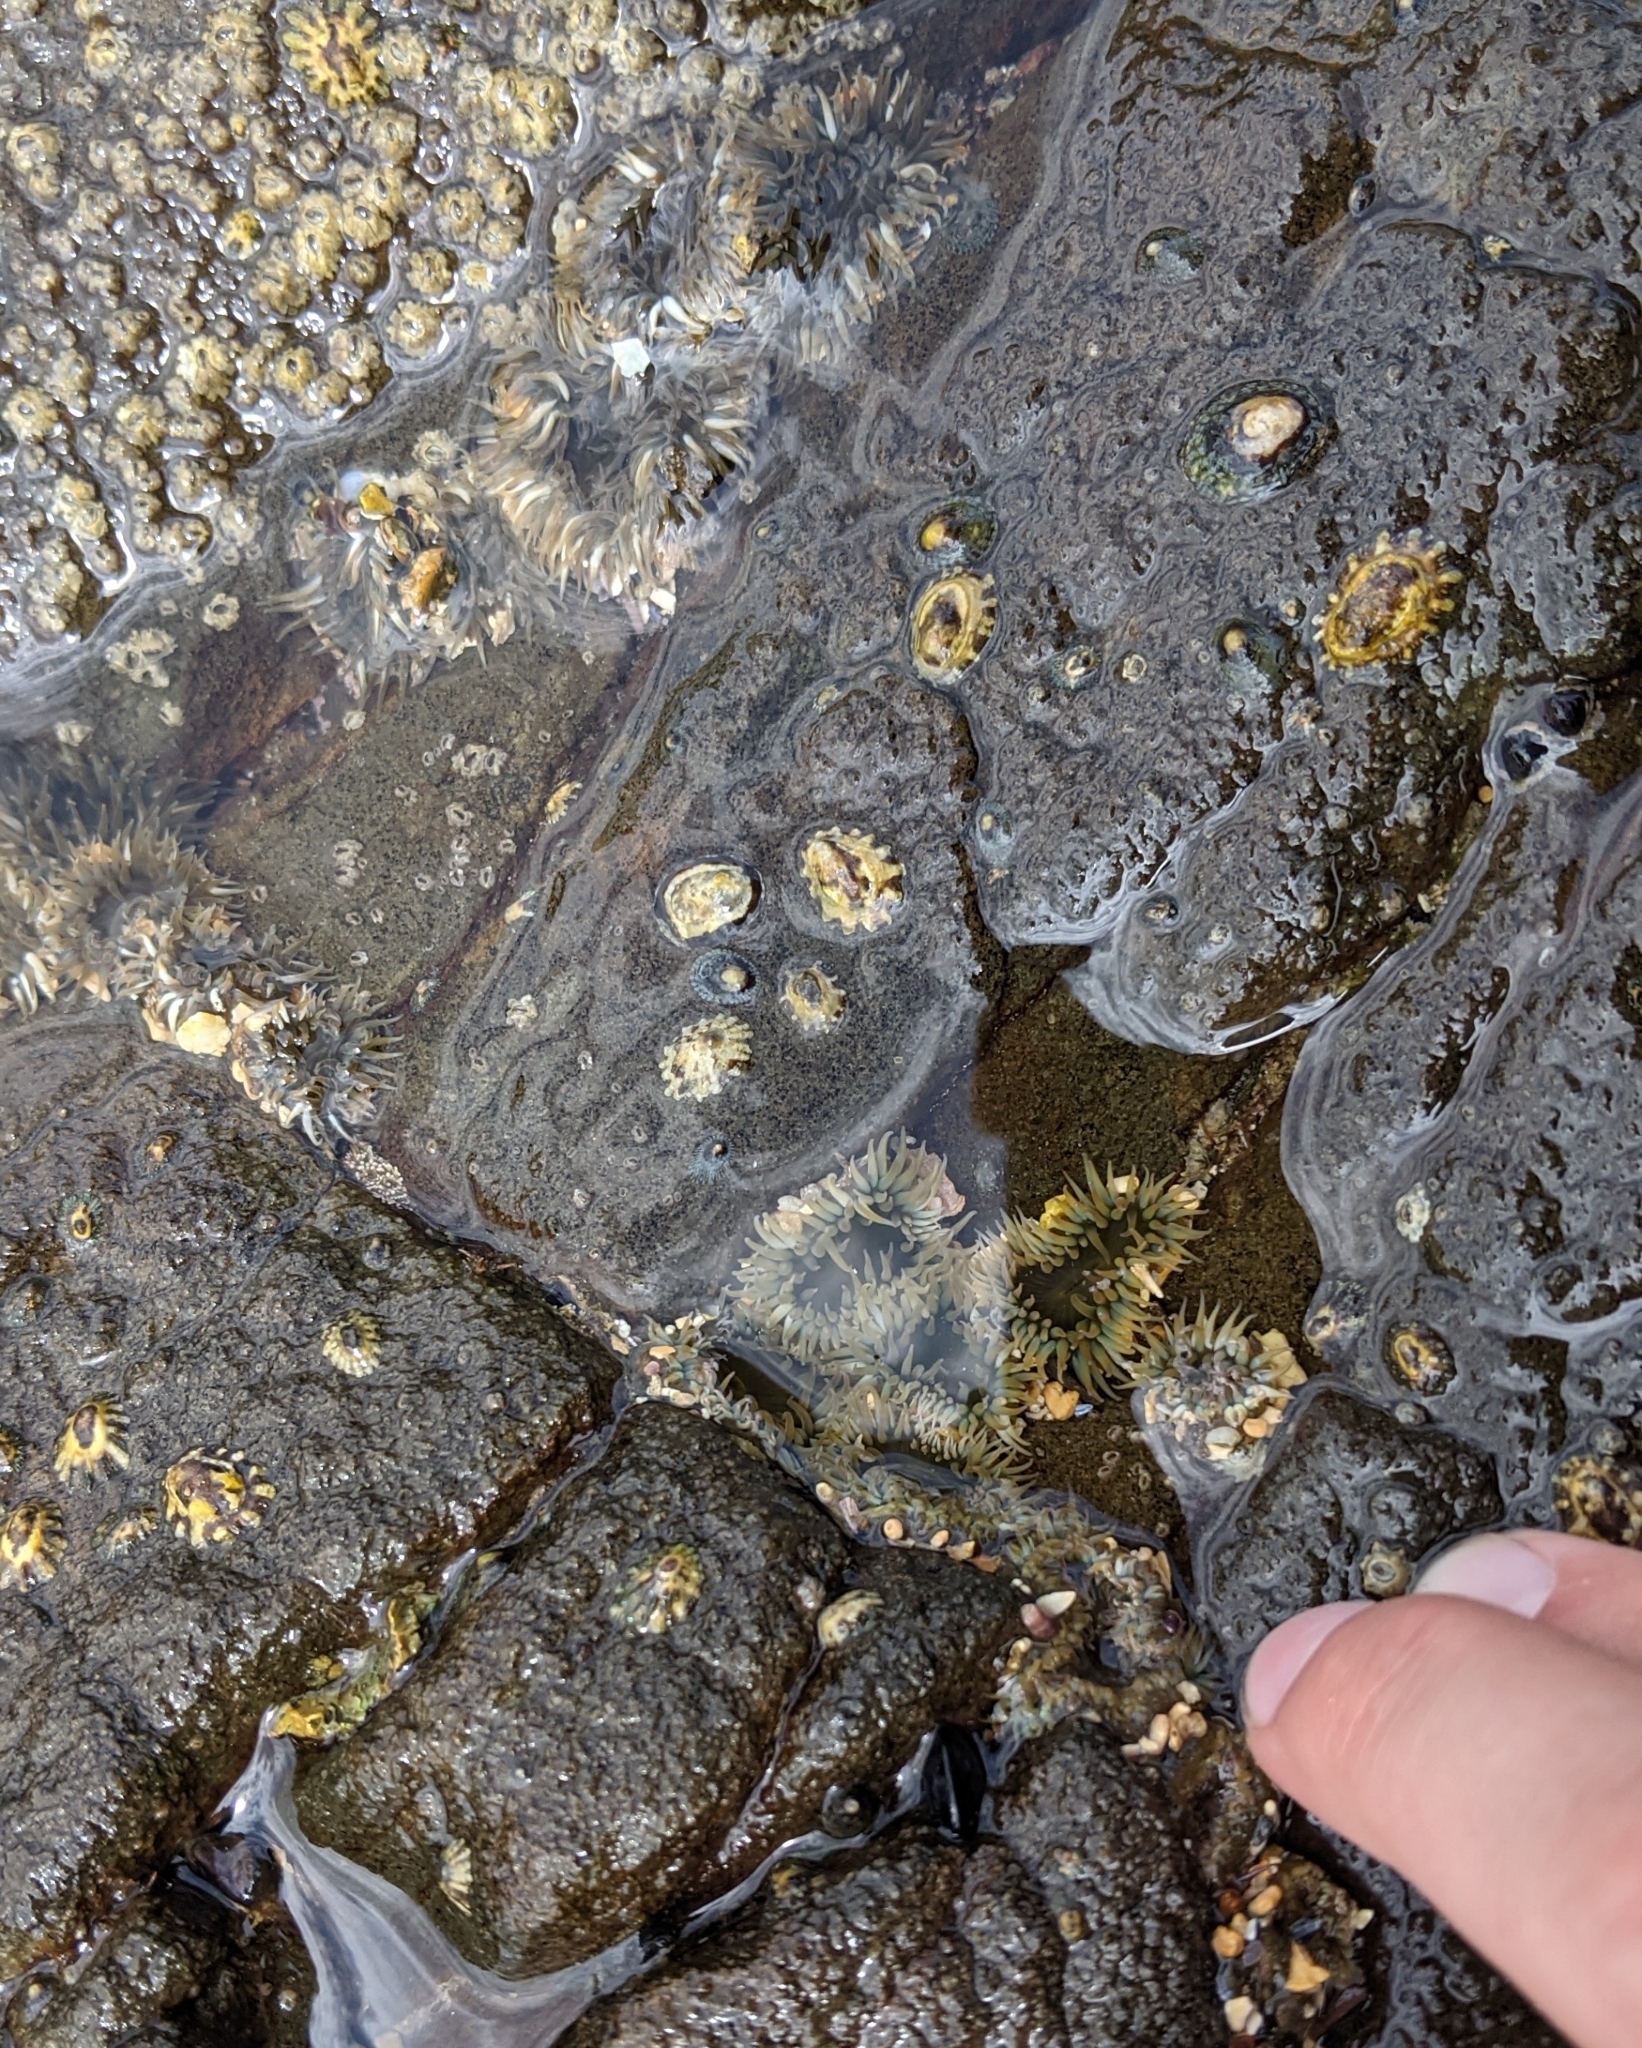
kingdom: Animalia
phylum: Cnidaria
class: Anthozoa
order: Actiniaria
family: Actiniidae
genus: Anthopleura
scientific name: Anthopleura elegantissima
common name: Clonal anemone
